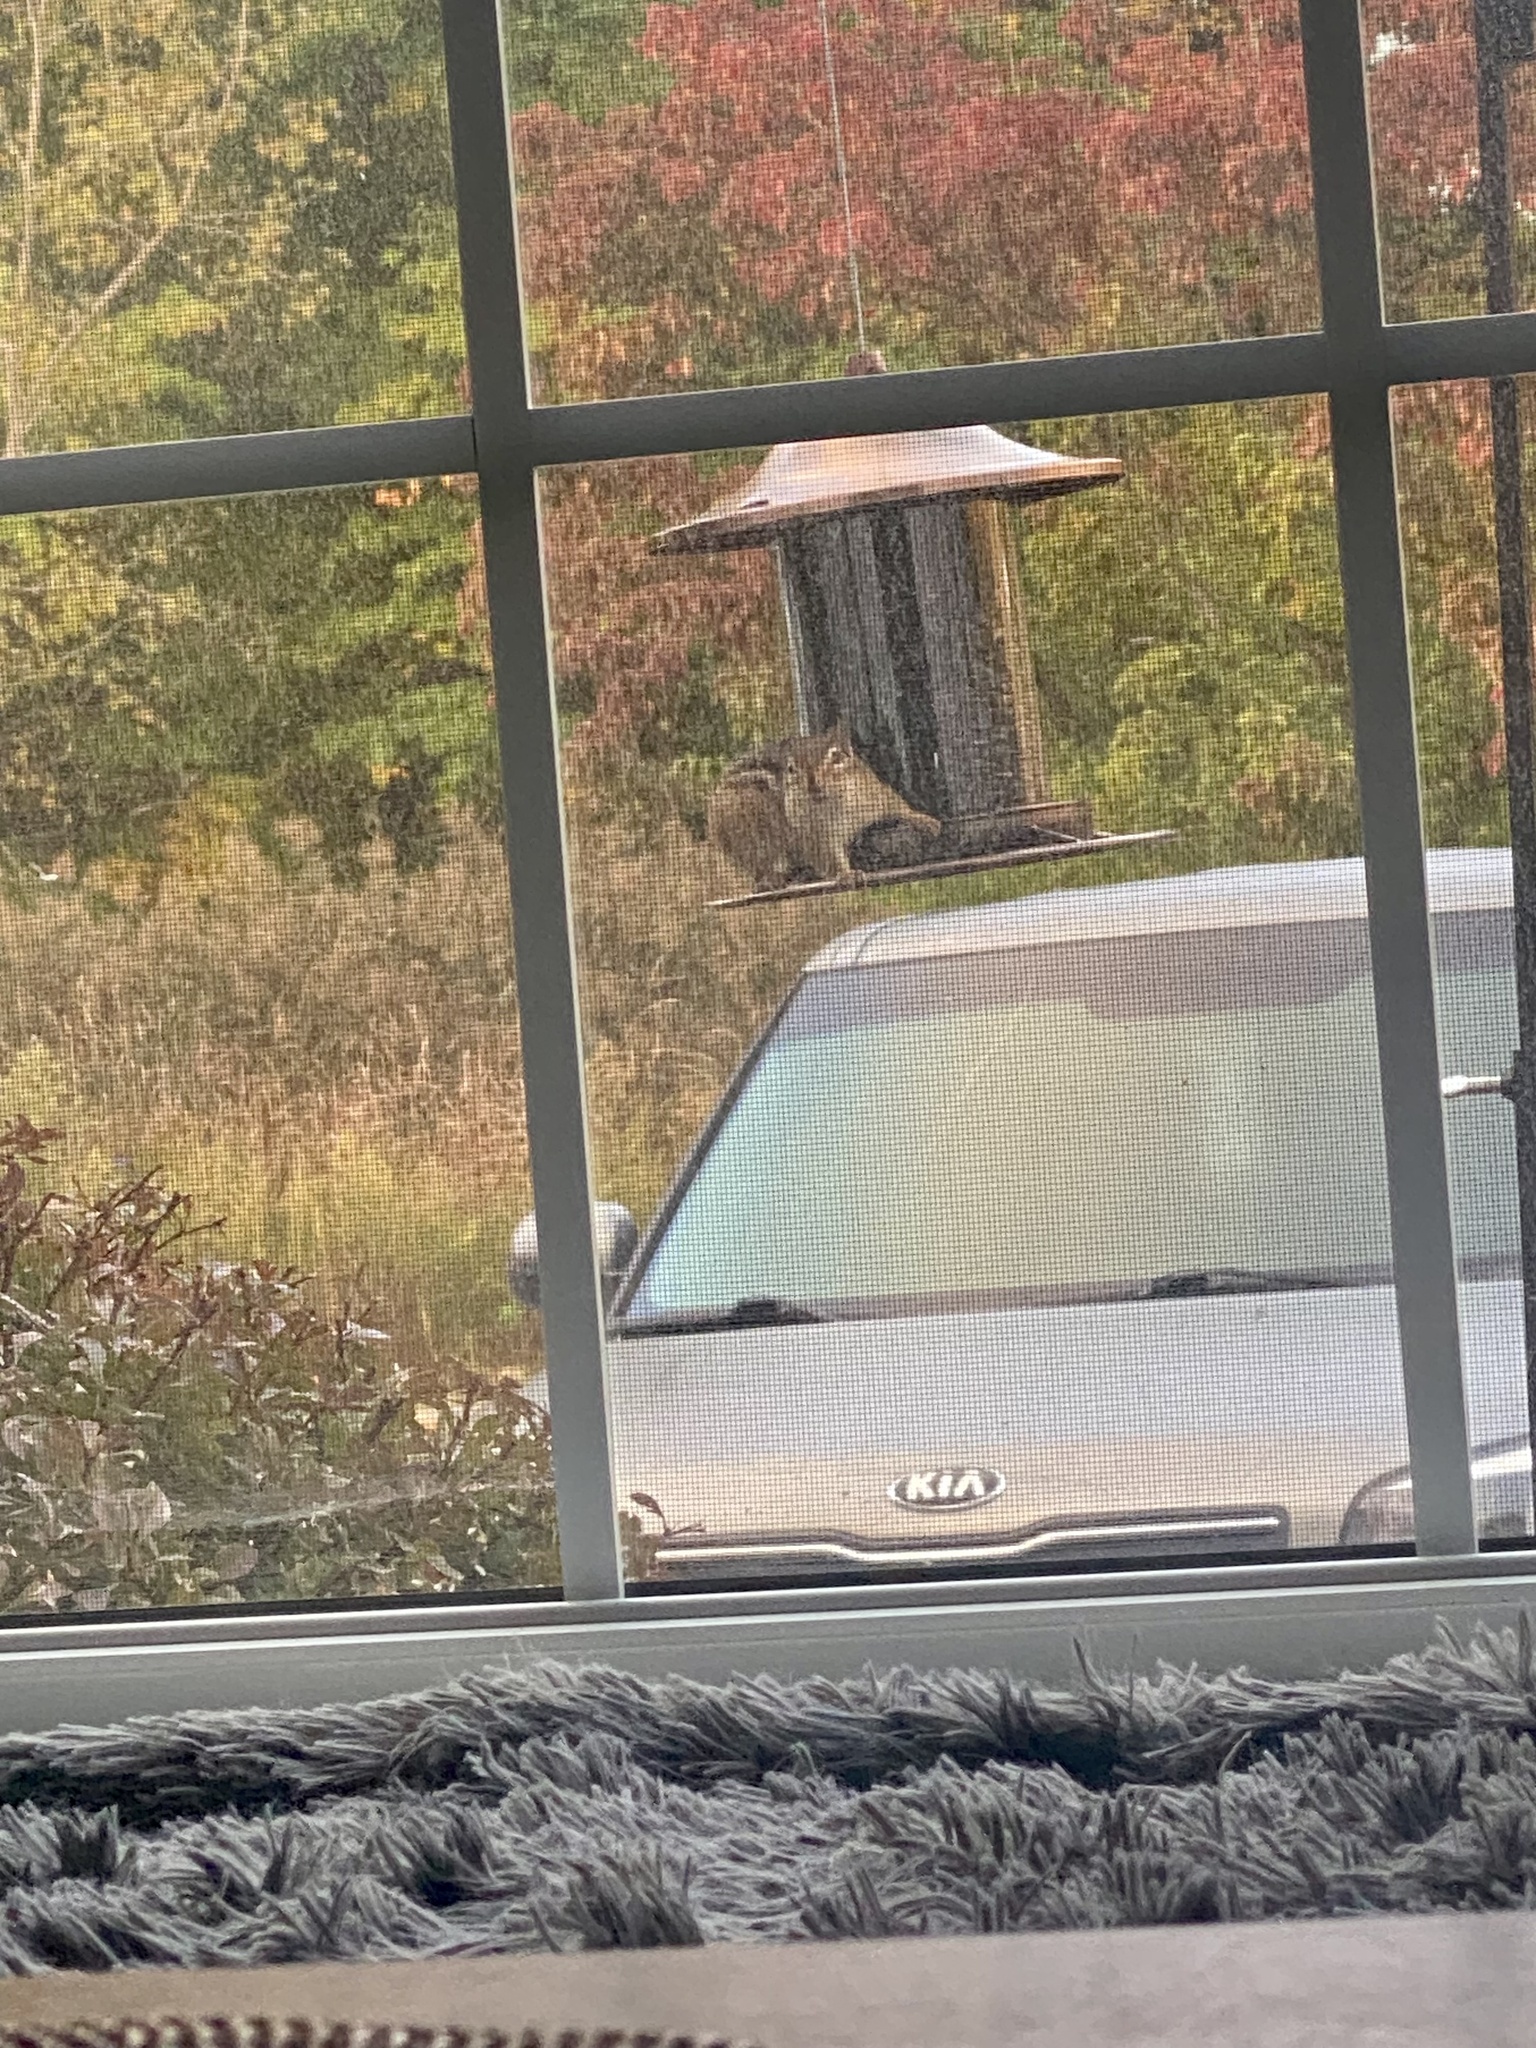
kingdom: Animalia
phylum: Chordata
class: Mammalia
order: Rodentia
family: Sciuridae
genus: Tamias
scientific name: Tamias striatus
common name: Eastern chipmunk
